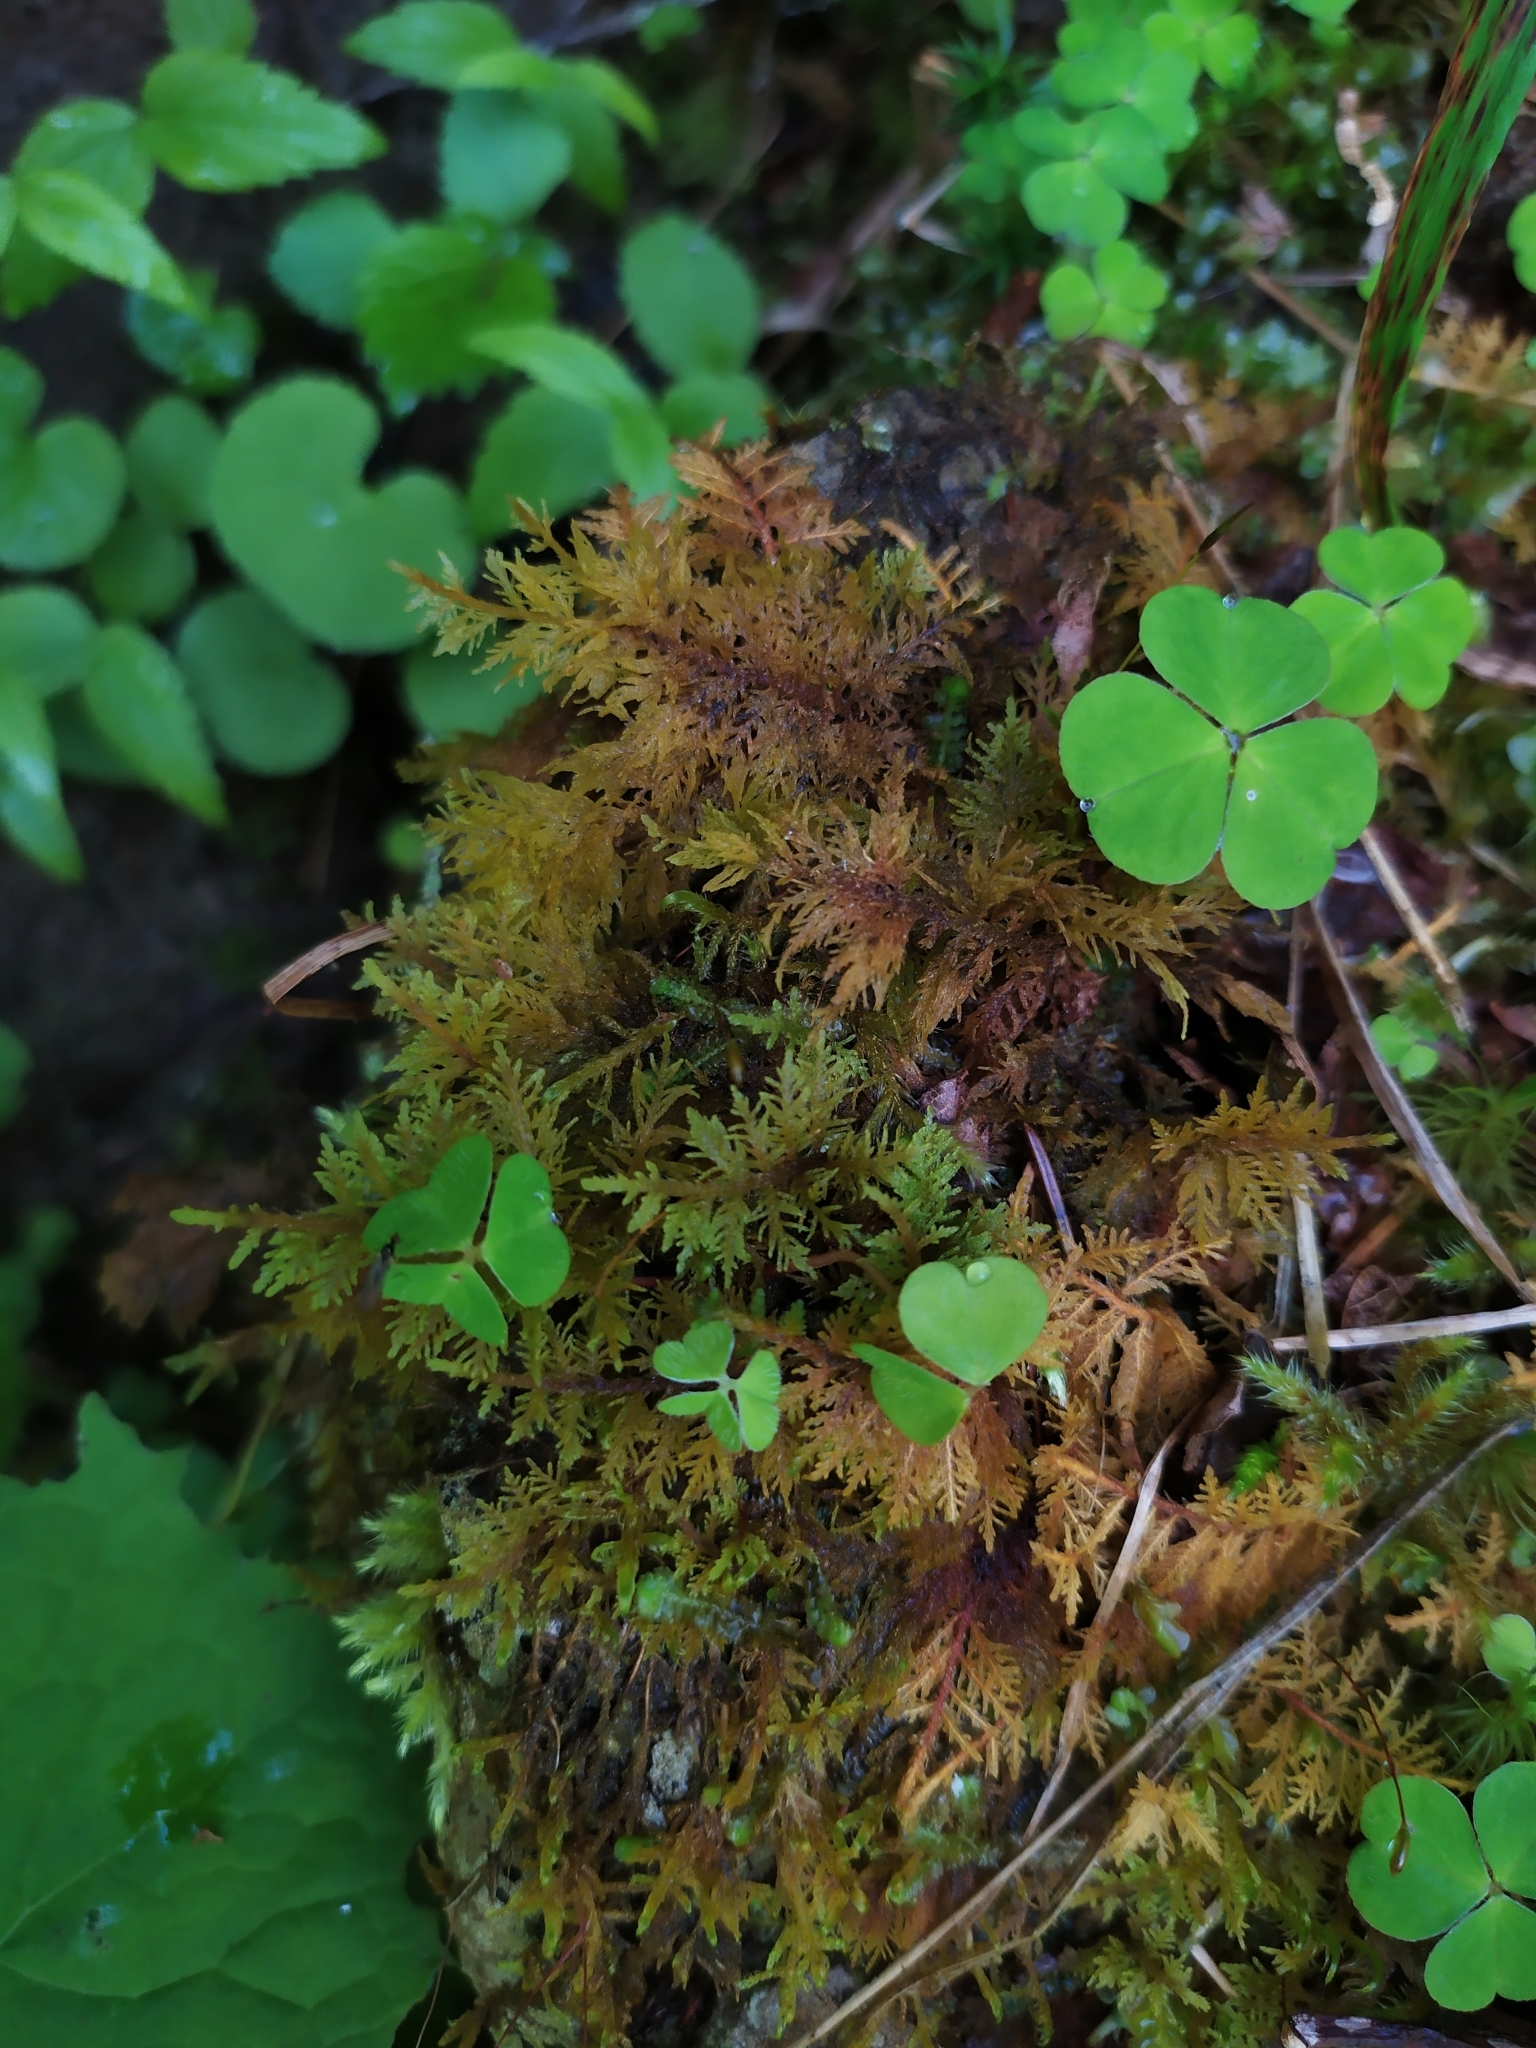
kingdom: Plantae
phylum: Tracheophyta
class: Magnoliopsida
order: Oxalidales
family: Oxalidaceae
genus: Oxalis
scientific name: Oxalis acetosella
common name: Wood-sorrel
